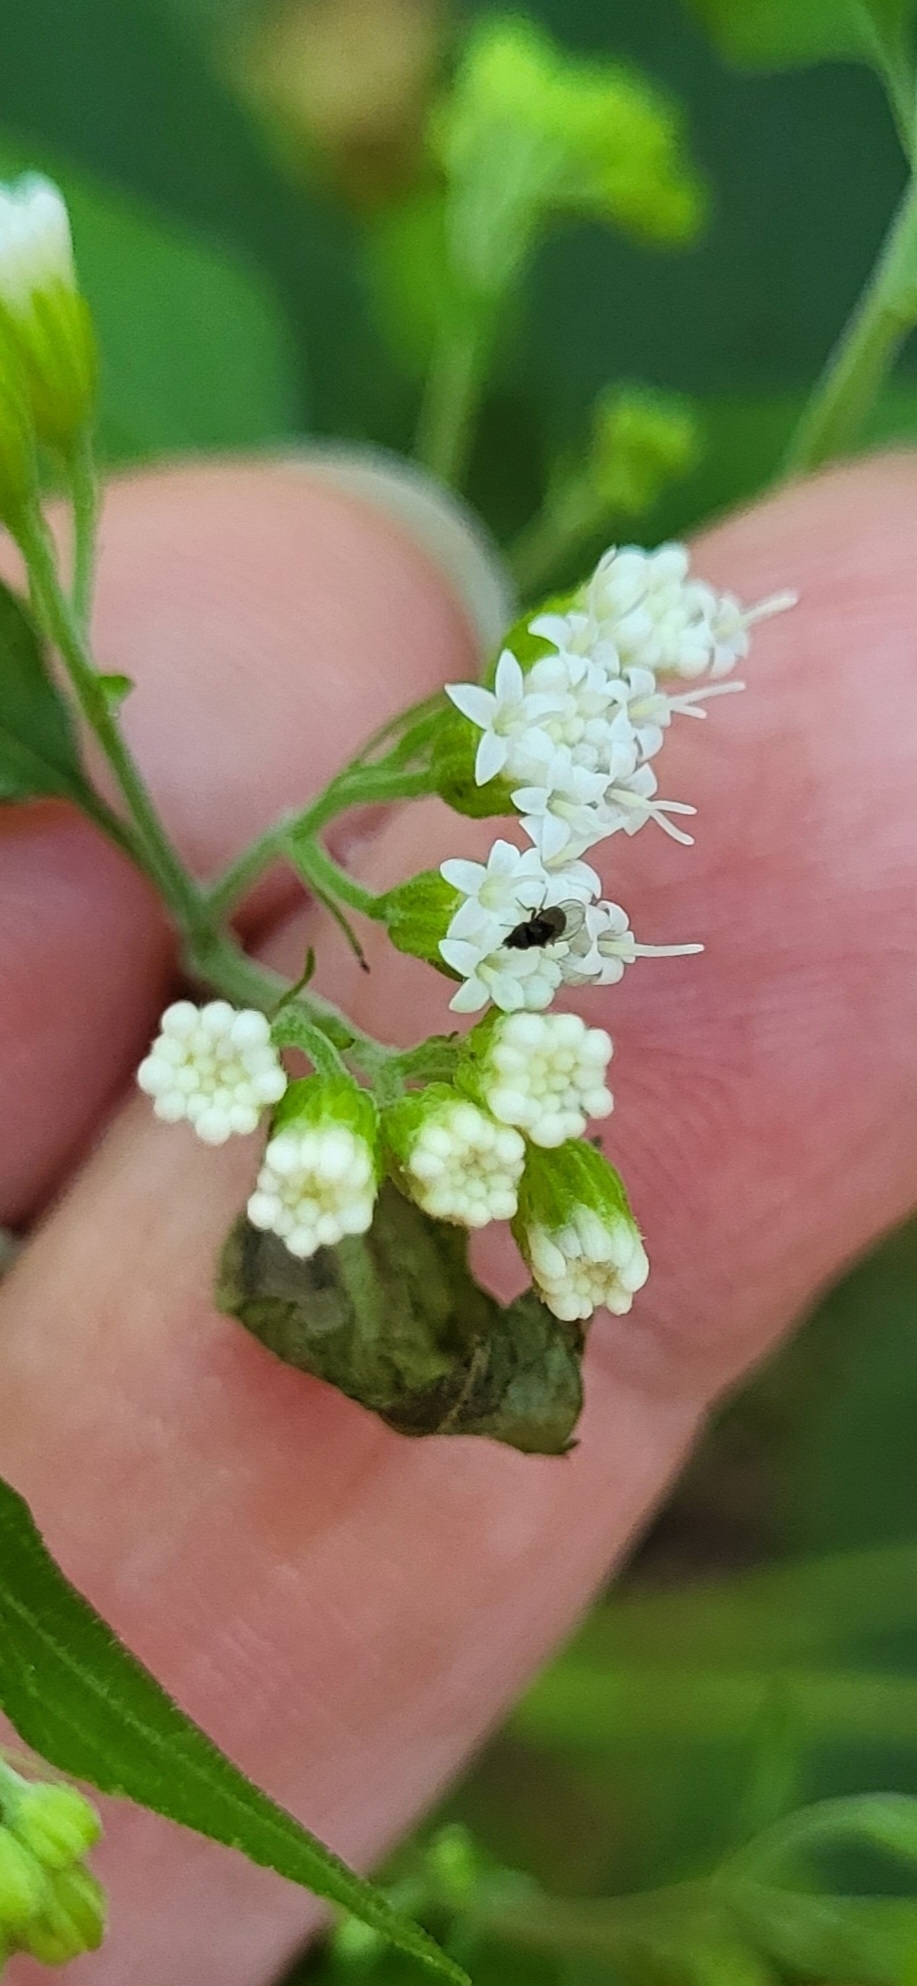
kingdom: Plantae
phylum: Tracheophyta
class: Magnoliopsida
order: Asterales
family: Asteraceae
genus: Ageratina
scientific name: Ageratina altissima
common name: White snakeroot
